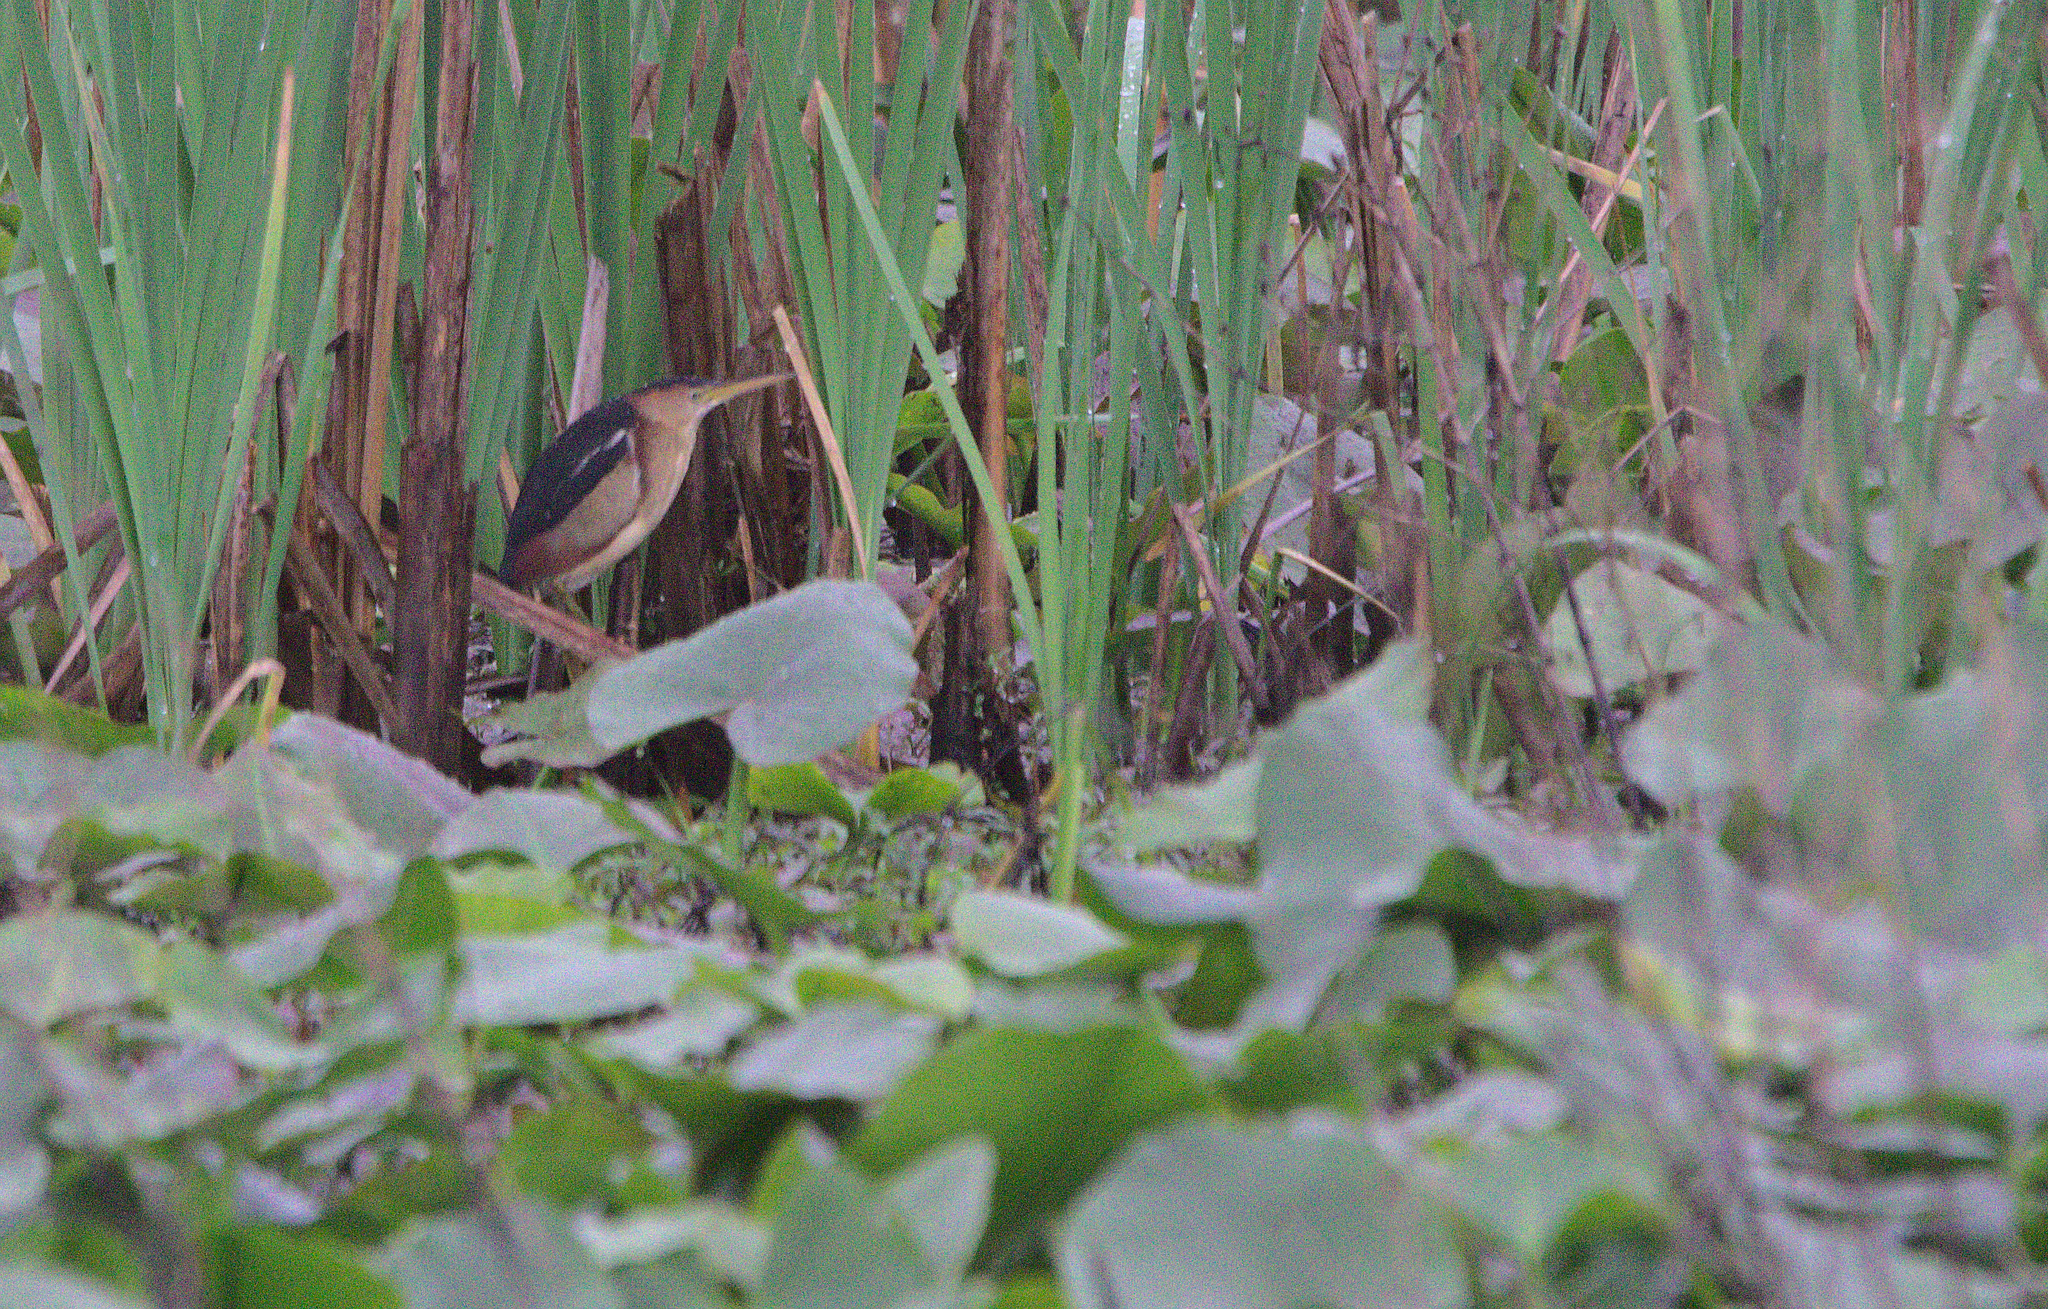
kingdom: Animalia
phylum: Chordata
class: Aves
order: Pelecaniformes
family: Ardeidae
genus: Ixobrychus
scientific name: Ixobrychus exilis
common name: Least bittern
